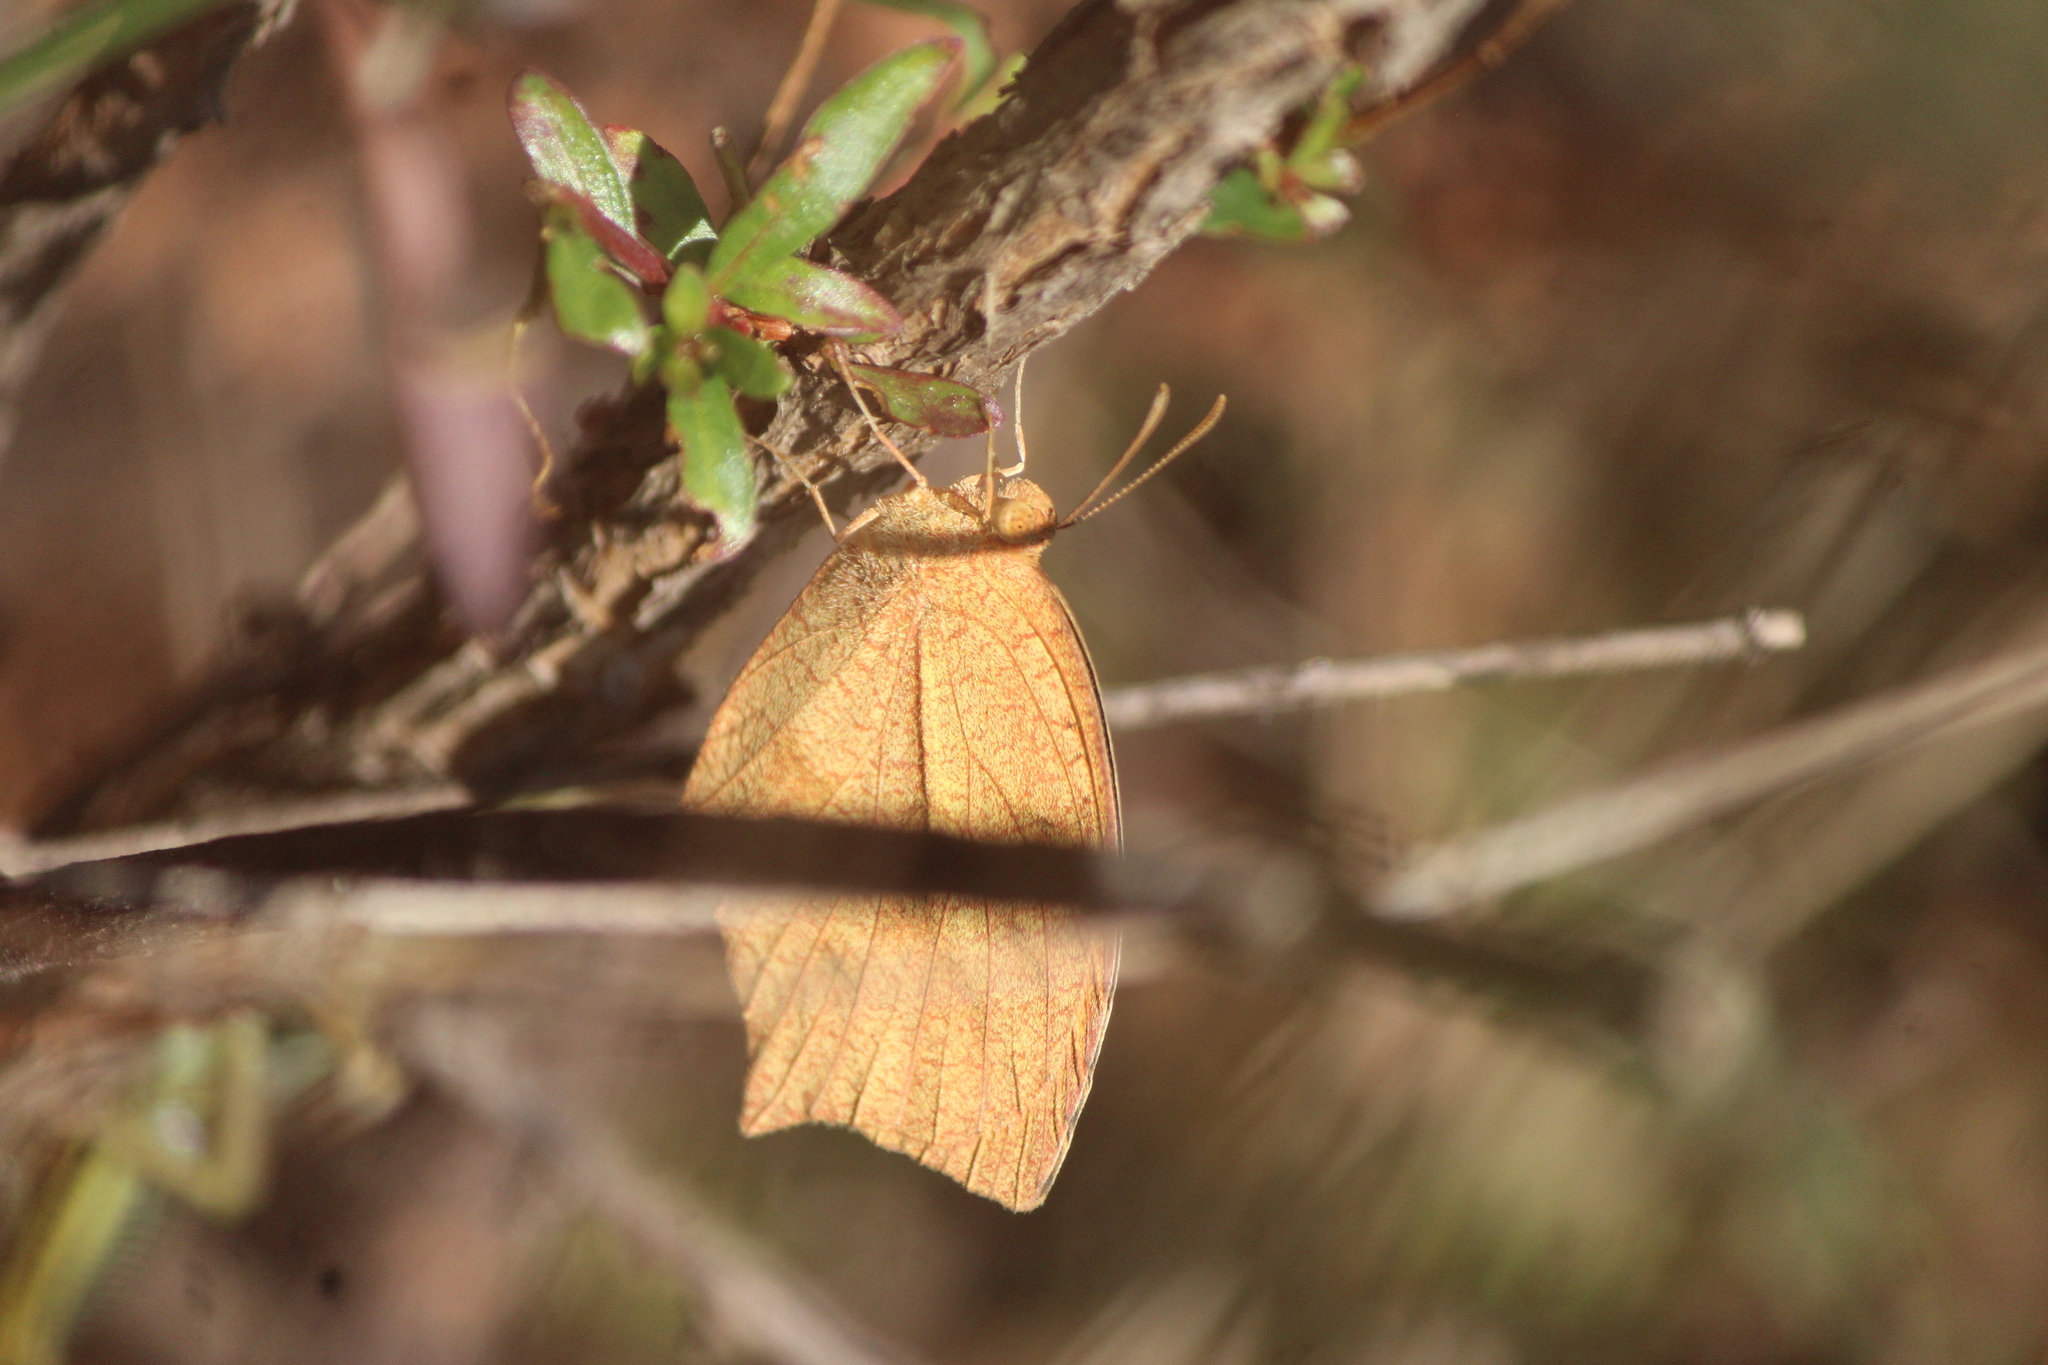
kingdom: Animalia
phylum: Arthropoda
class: Insecta
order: Lepidoptera
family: Pieridae
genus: Pyrisitia
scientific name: Pyrisitia proterpia
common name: Tailed orange
